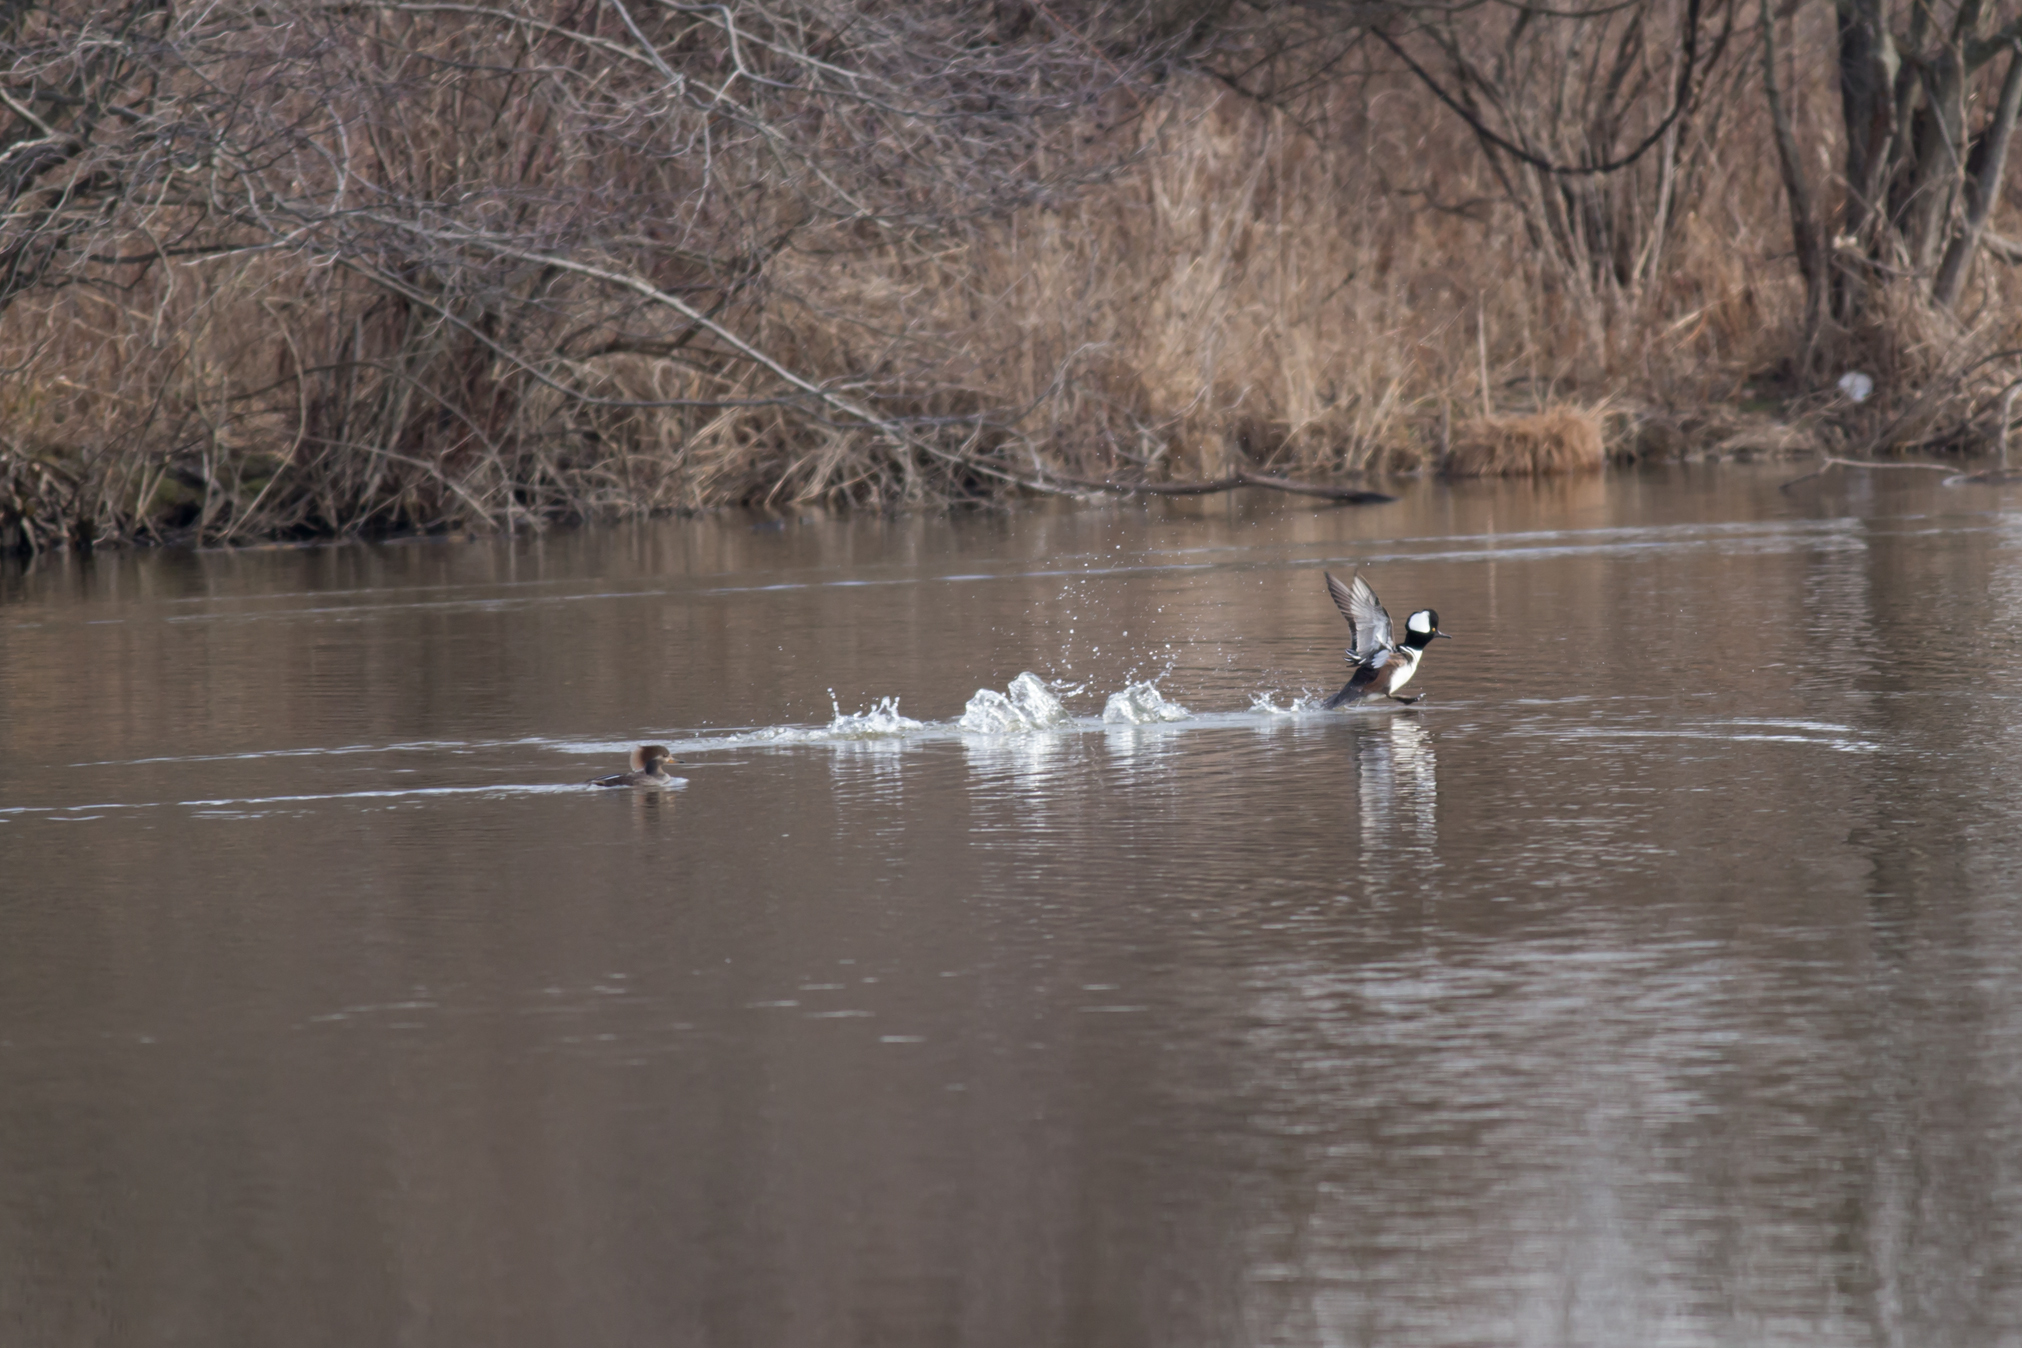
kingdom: Animalia
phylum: Chordata
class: Aves
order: Anseriformes
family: Anatidae
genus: Lophodytes
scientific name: Lophodytes cucullatus
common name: Hooded merganser
